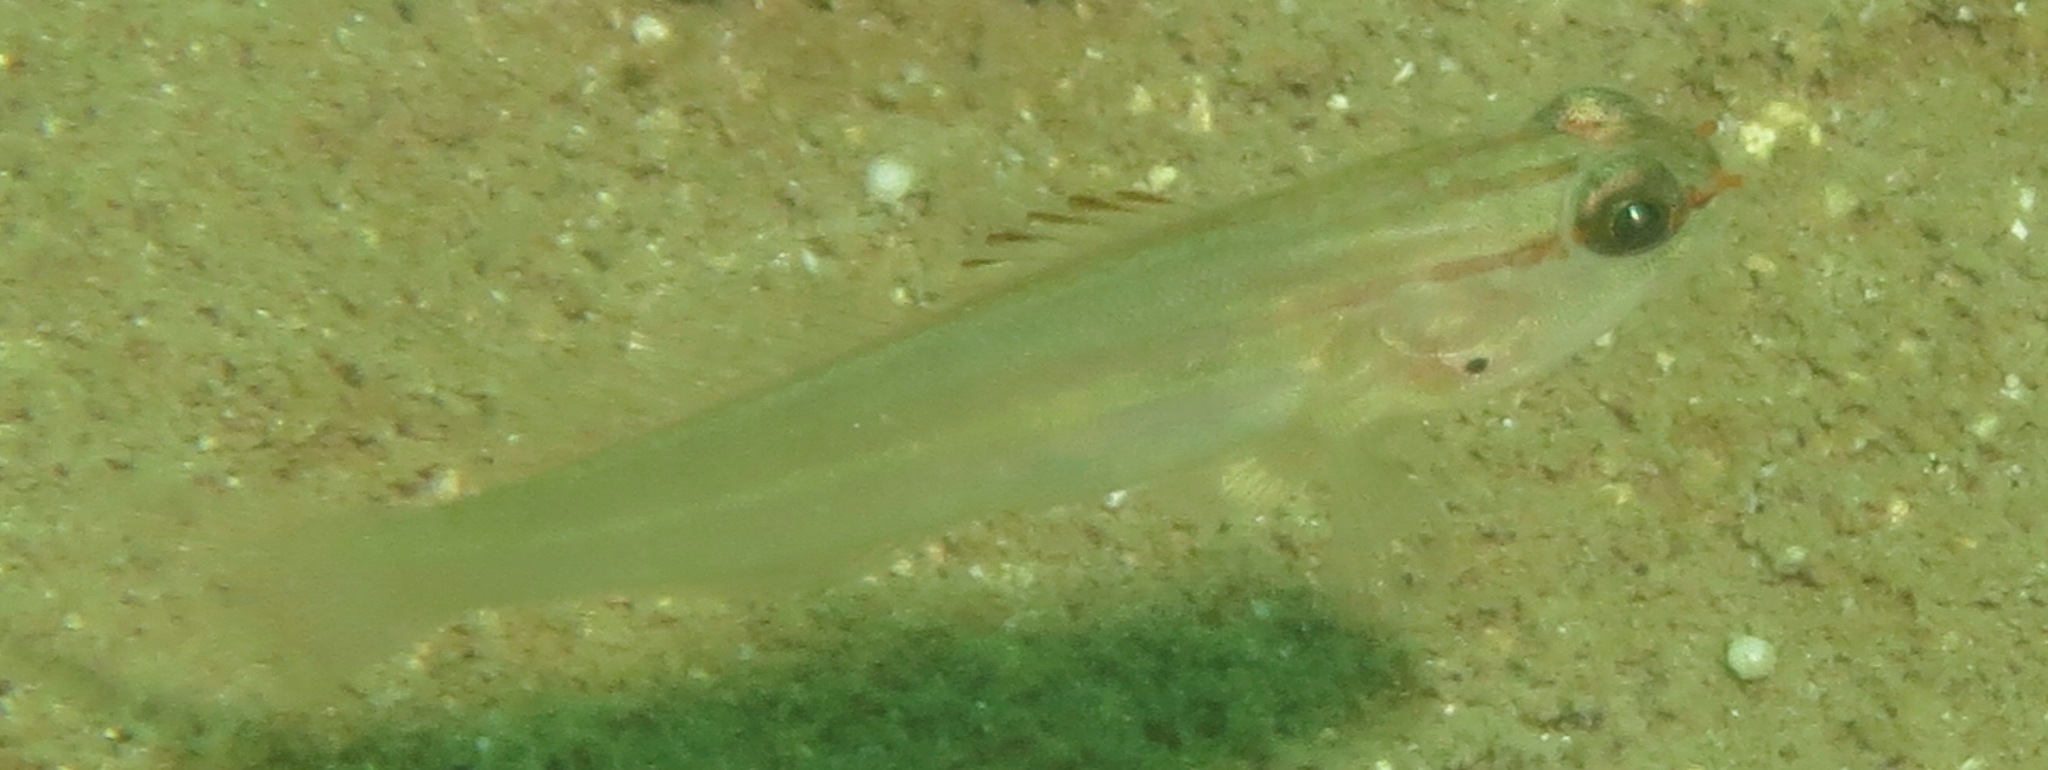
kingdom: Animalia
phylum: Chordata
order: Perciformes
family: Gobiidae
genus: Amblygobius
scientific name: Amblygobius nocturnus
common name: Nocturn goby
